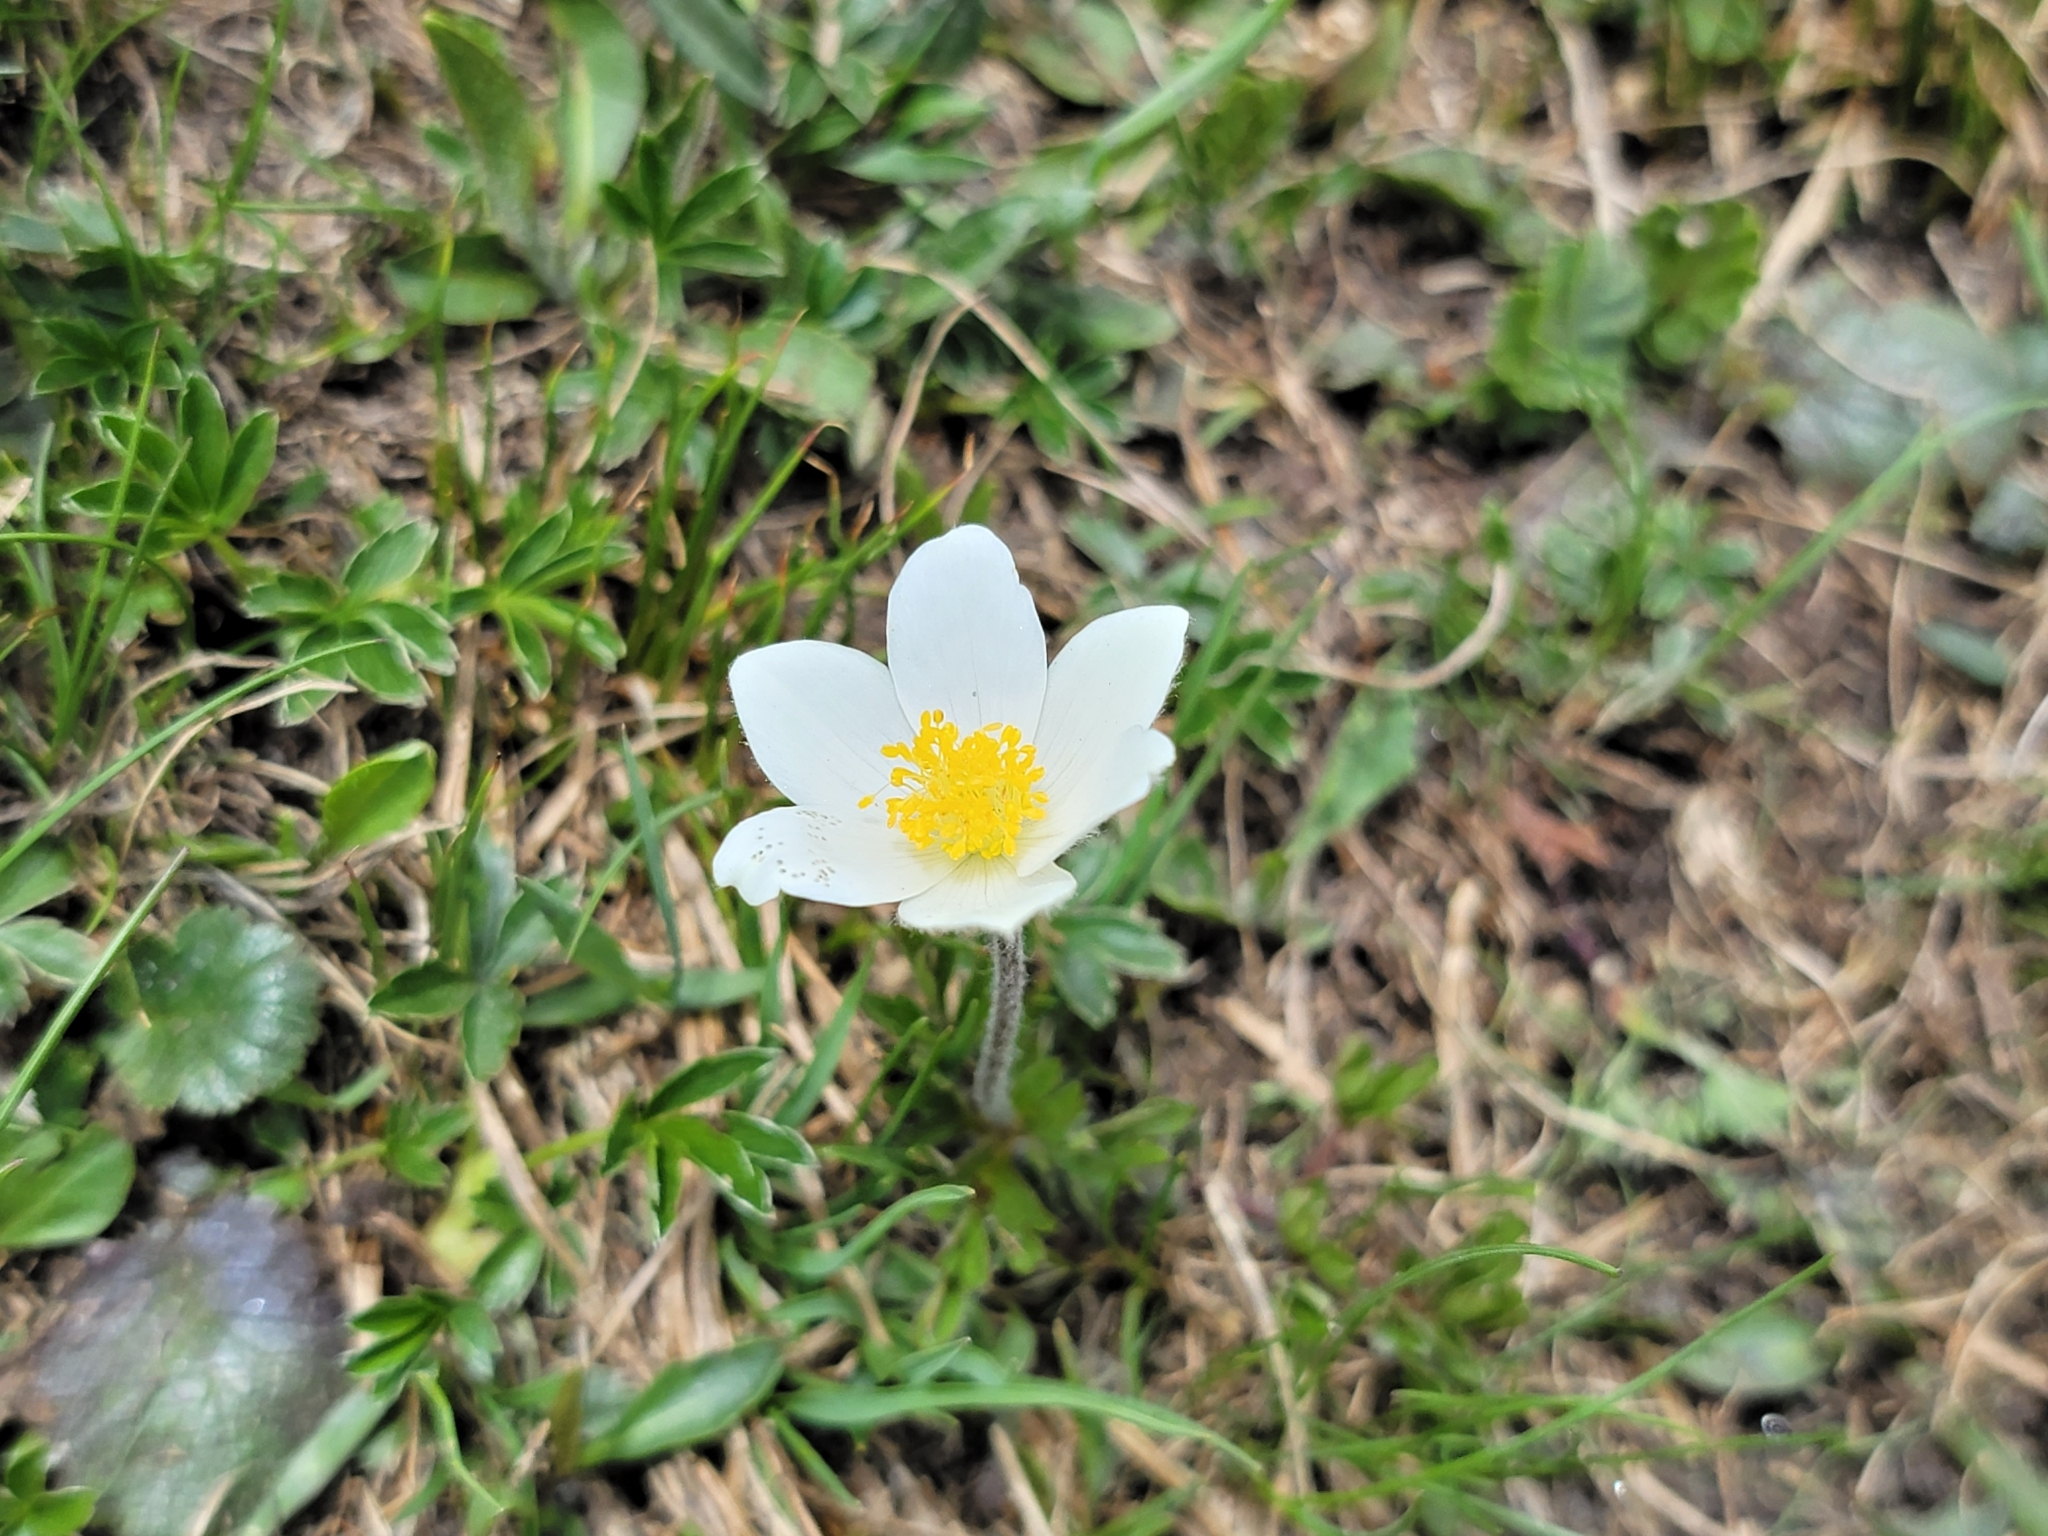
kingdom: Plantae
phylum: Tracheophyta
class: Magnoliopsida
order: Ranunculales
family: Ranunculaceae
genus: Pulsatilla
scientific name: Pulsatilla alpina
